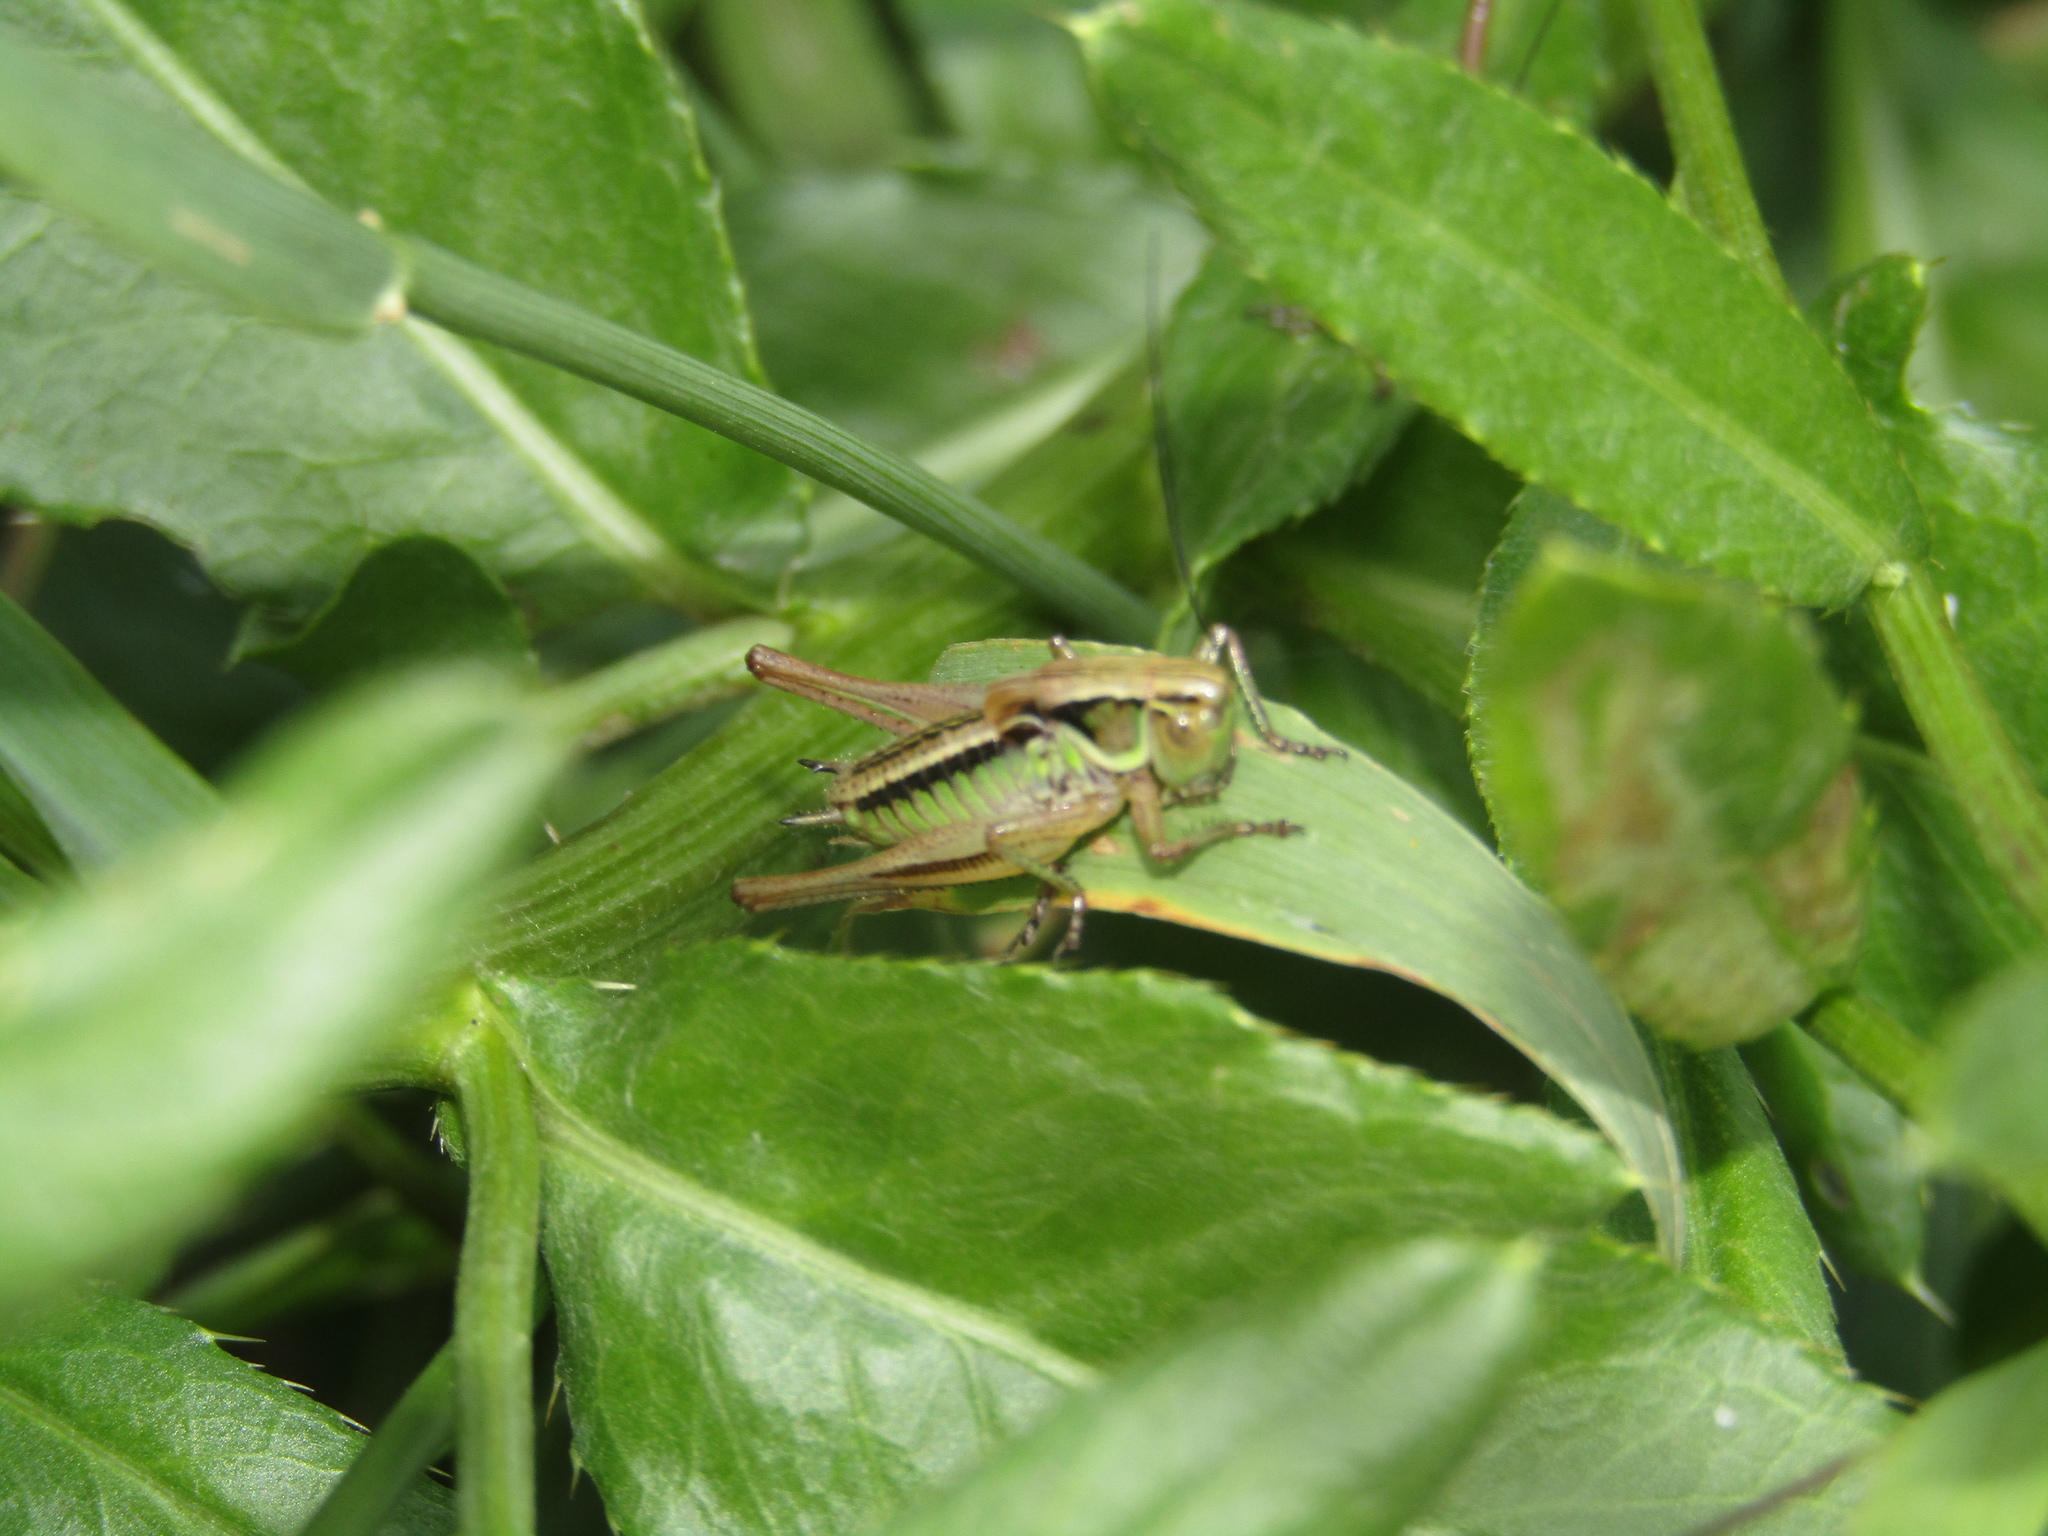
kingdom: Animalia
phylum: Arthropoda
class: Insecta
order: Orthoptera
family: Tettigoniidae
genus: Roeseliana
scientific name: Roeseliana roeselii
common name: Roesel's bush cricket
